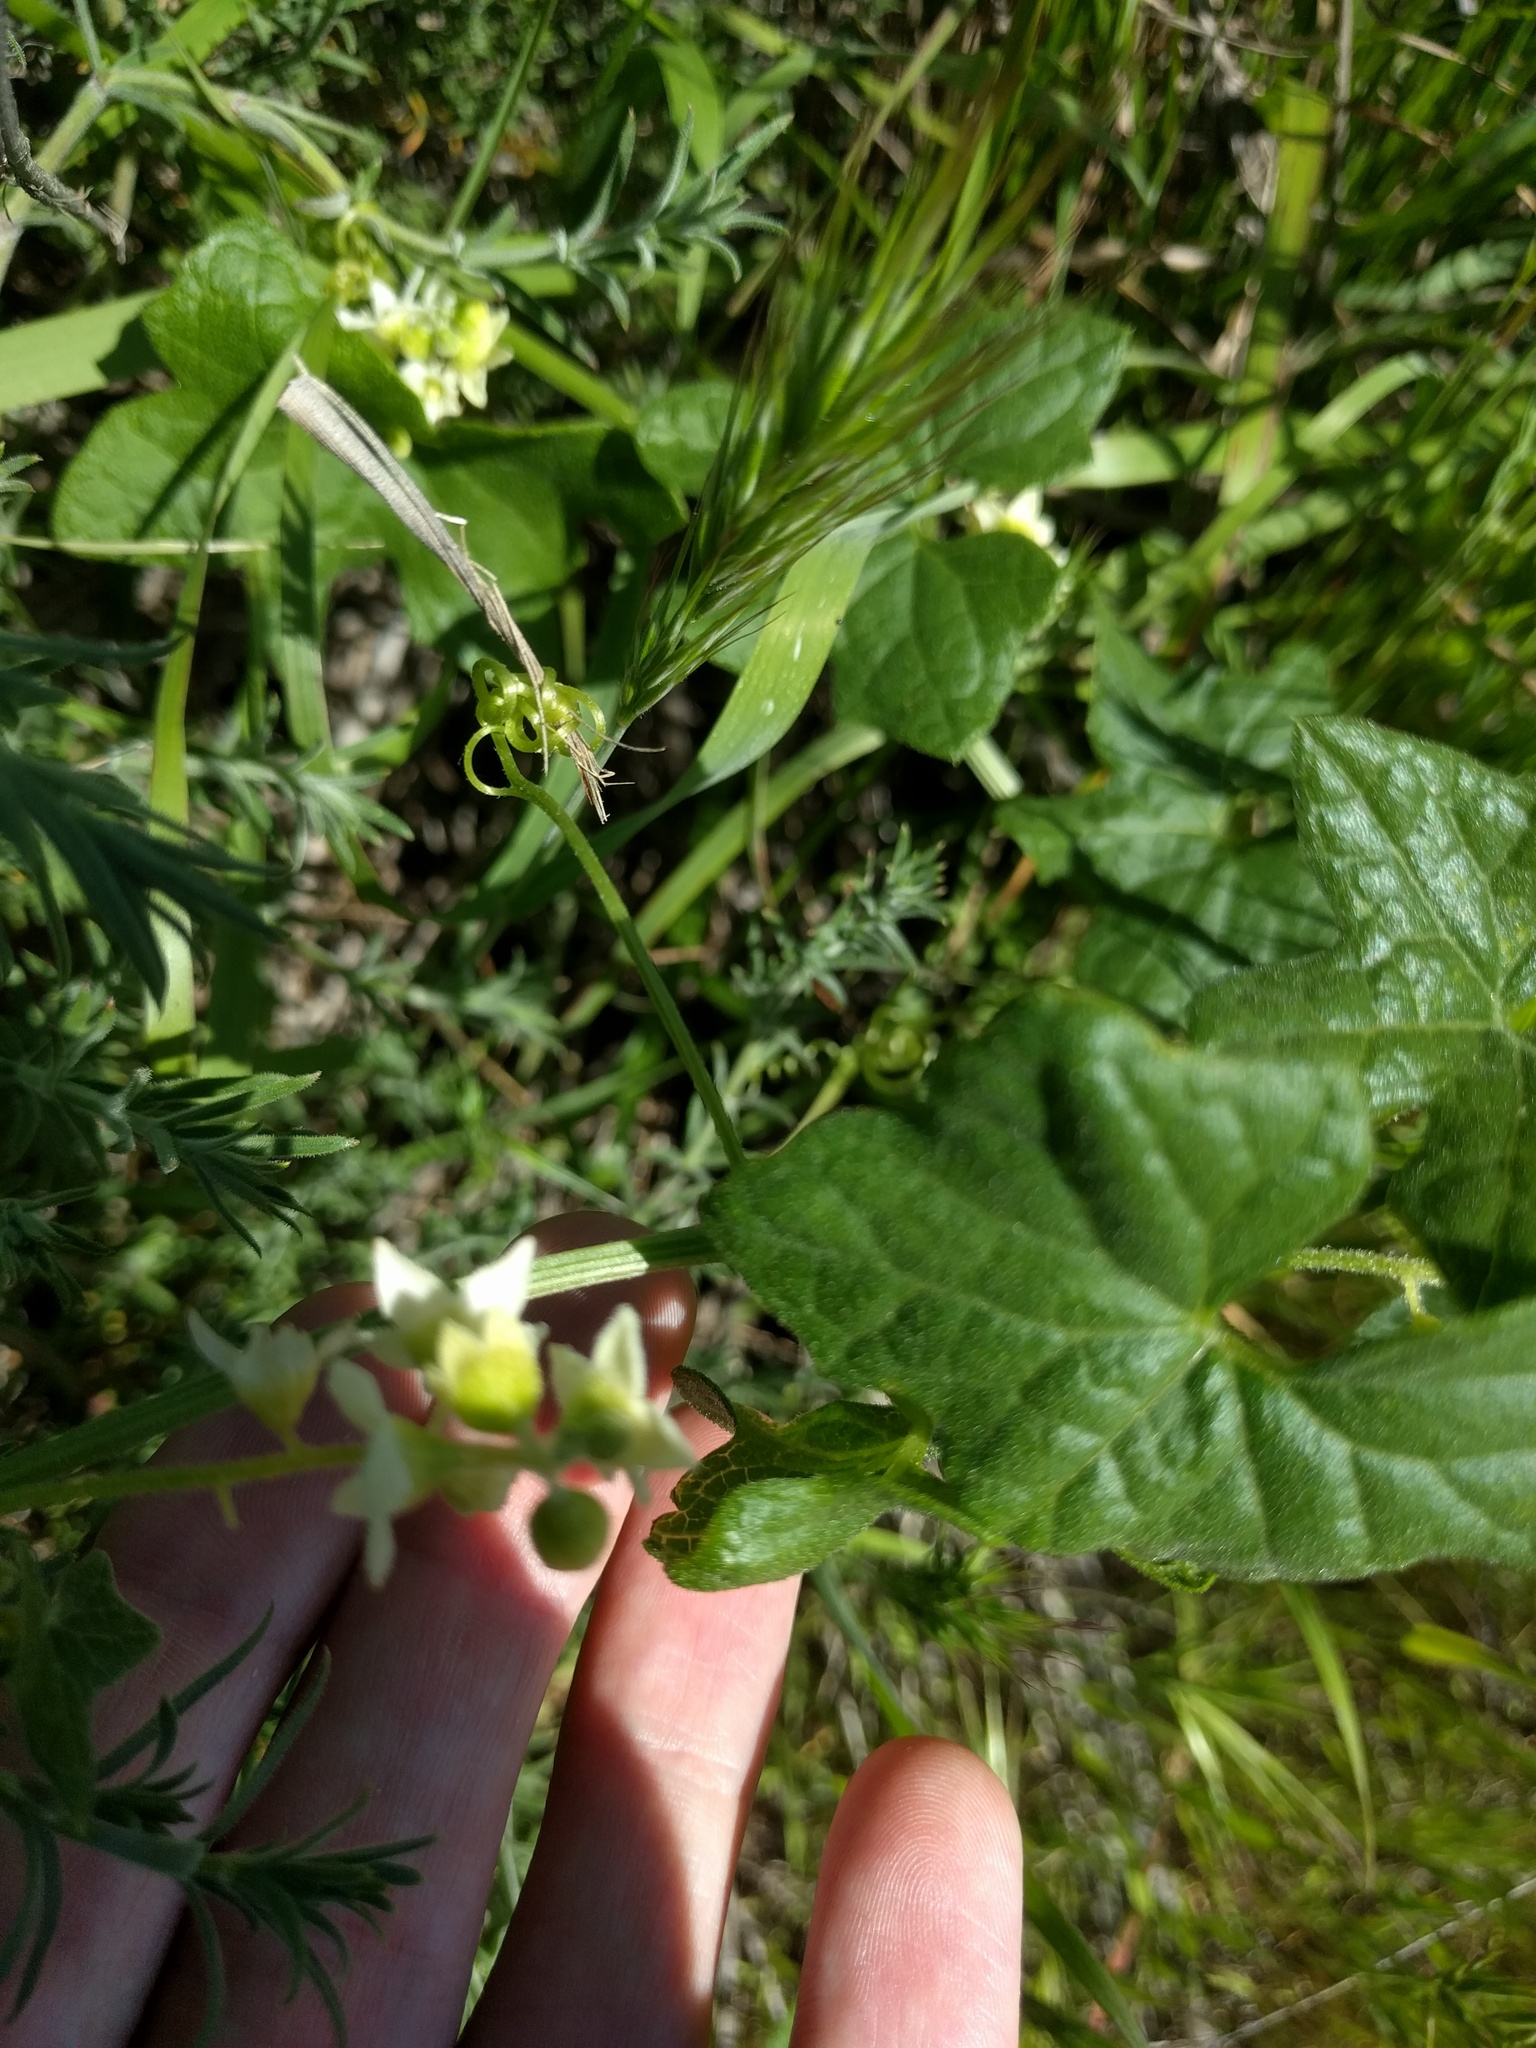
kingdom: Plantae
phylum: Tracheophyta
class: Magnoliopsida
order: Cucurbitales
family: Cucurbitaceae
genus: Marah
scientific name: Marah macrocarpa
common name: Cucamonga manroot
